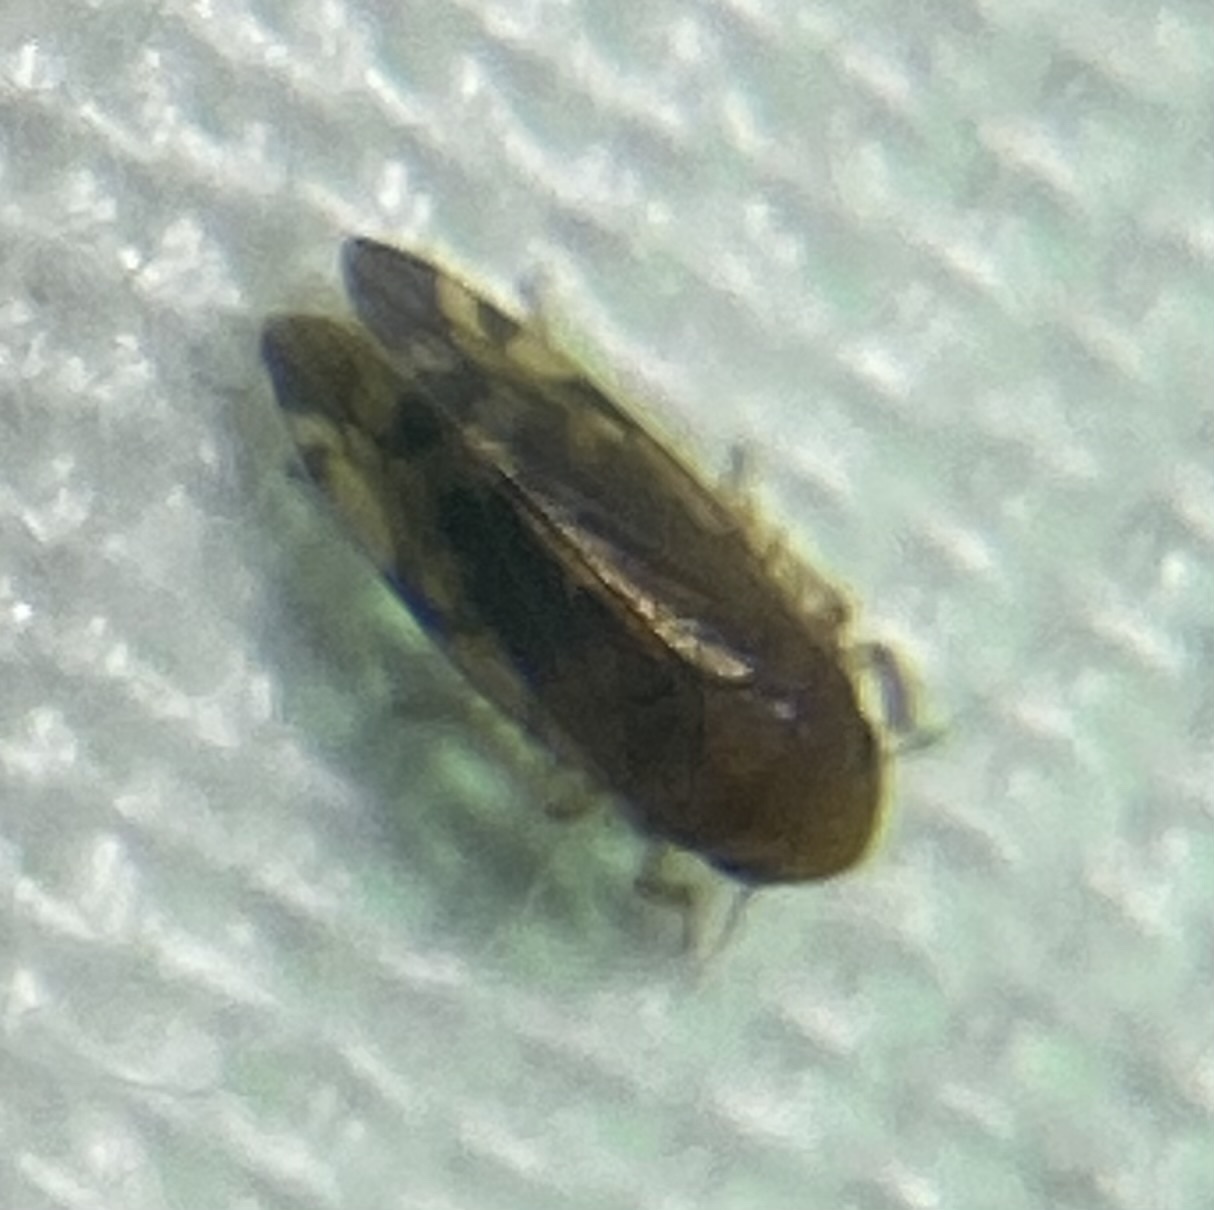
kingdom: Animalia
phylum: Arthropoda
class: Insecta
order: Hemiptera
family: Cicadellidae
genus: Xestocephalus
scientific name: Xestocephalus desertorum
